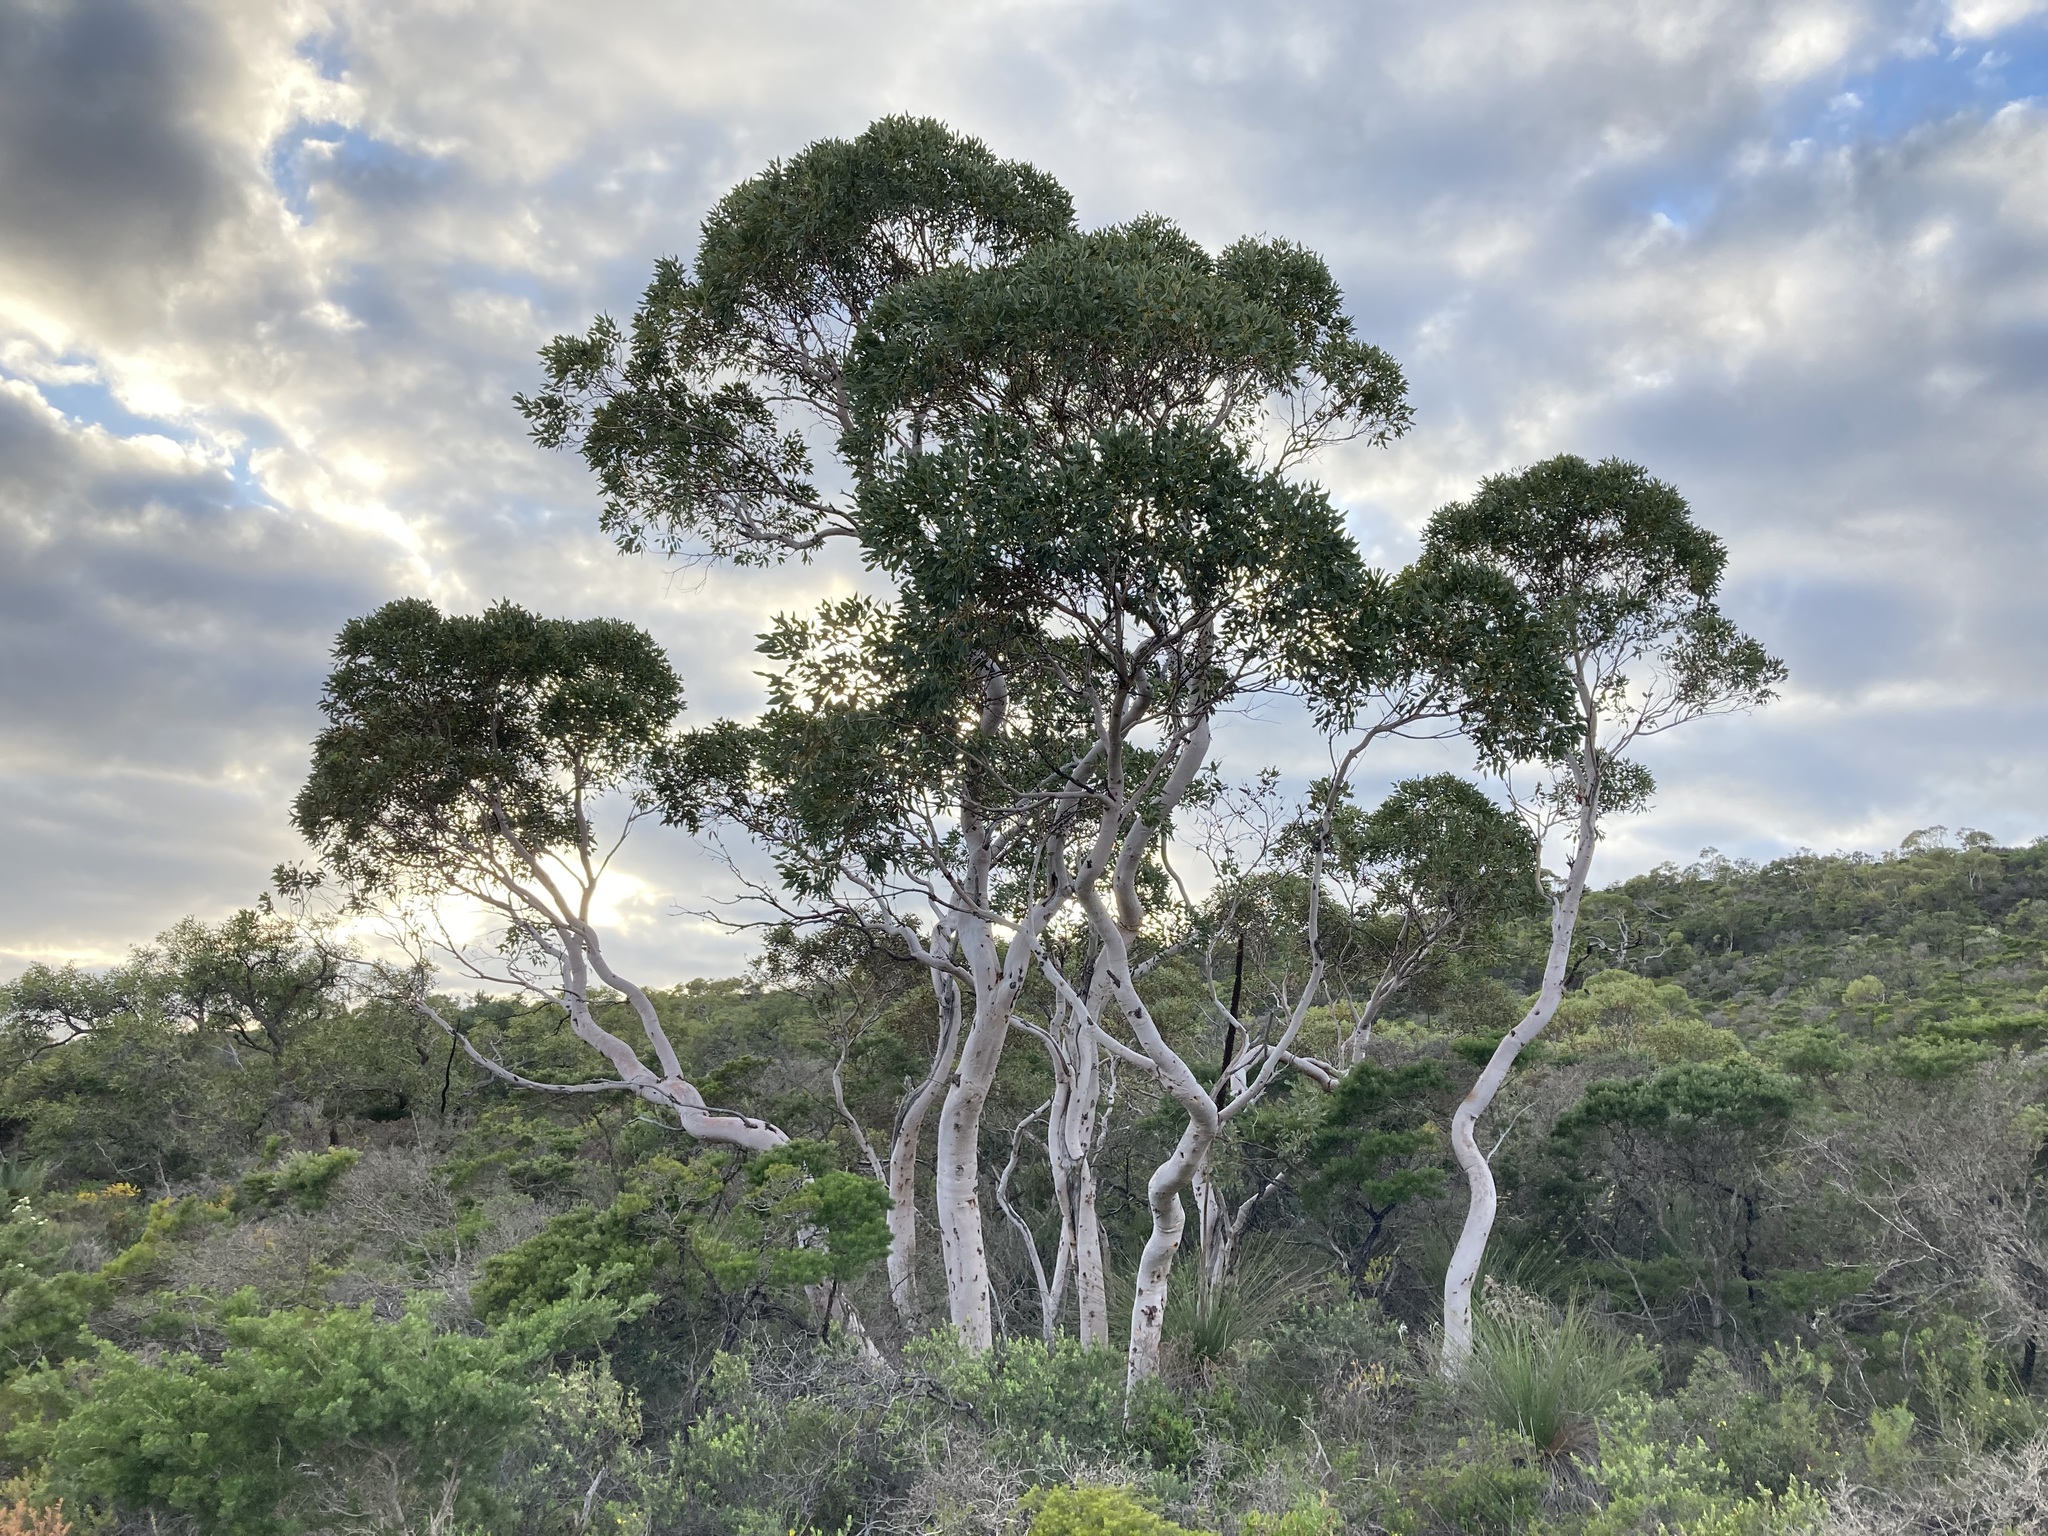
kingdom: Plantae
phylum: Tracheophyta
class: Magnoliopsida
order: Myrtales
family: Myrtaceae
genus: Eucalyptus
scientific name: Eucalyptus drummondii
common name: Drummond's mallee
